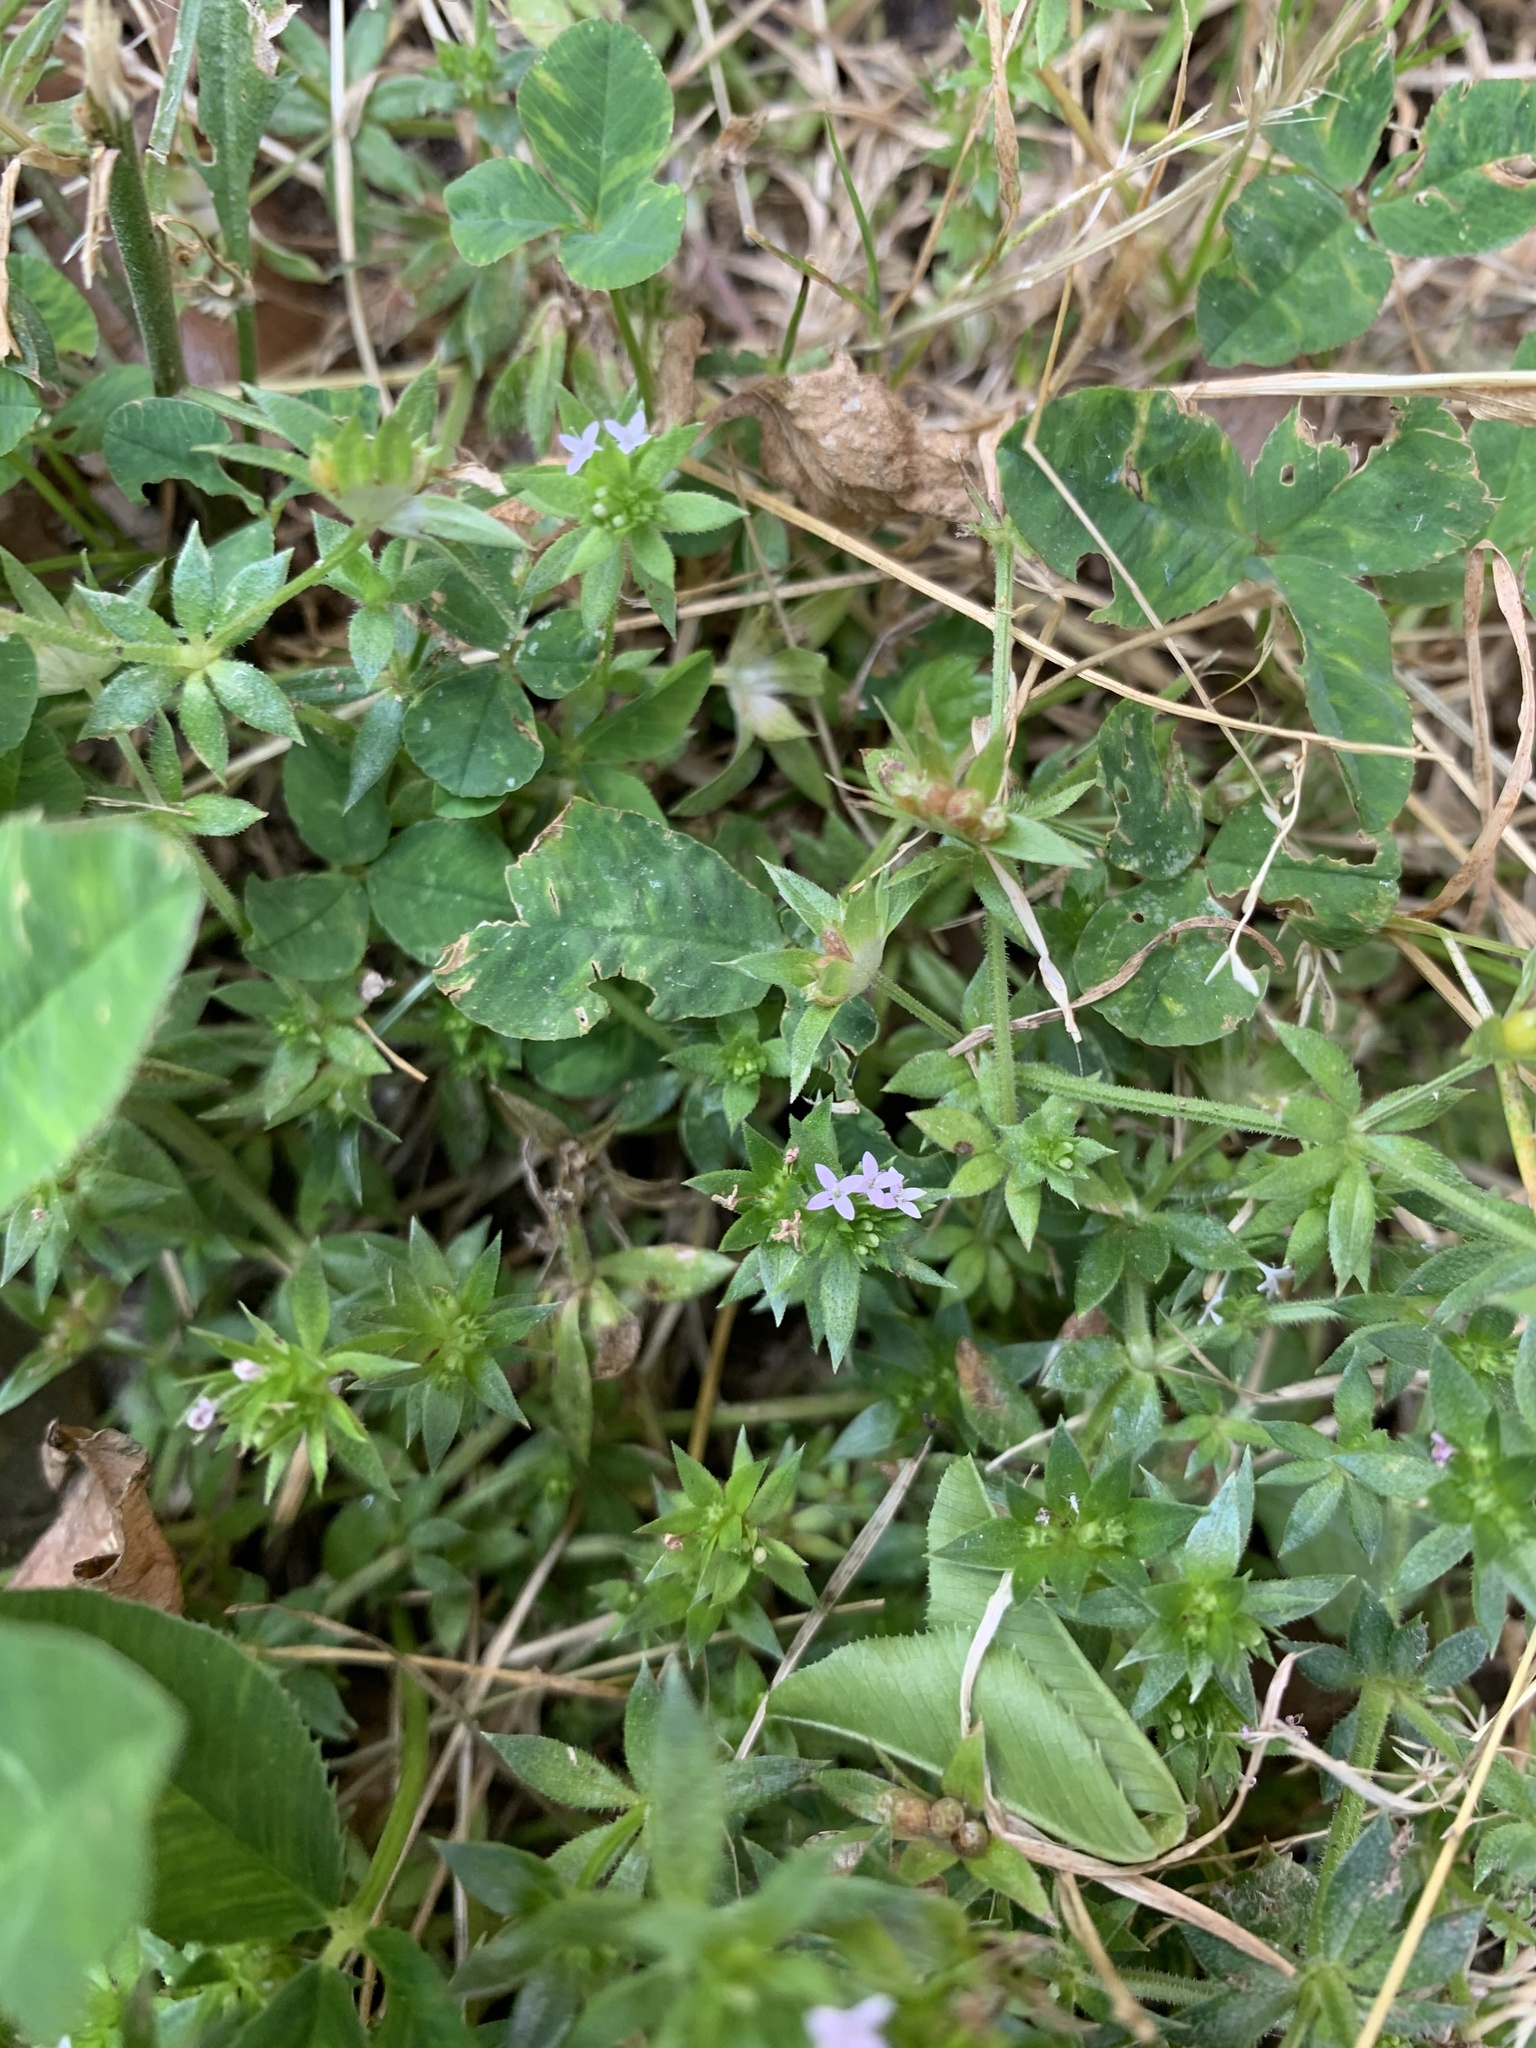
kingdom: Plantae
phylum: Tracheophyta
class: Magnoliopsida
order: Gentianales
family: Rubiaceae
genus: Sherardia
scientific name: Sherardia arvensis
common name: Field madder
